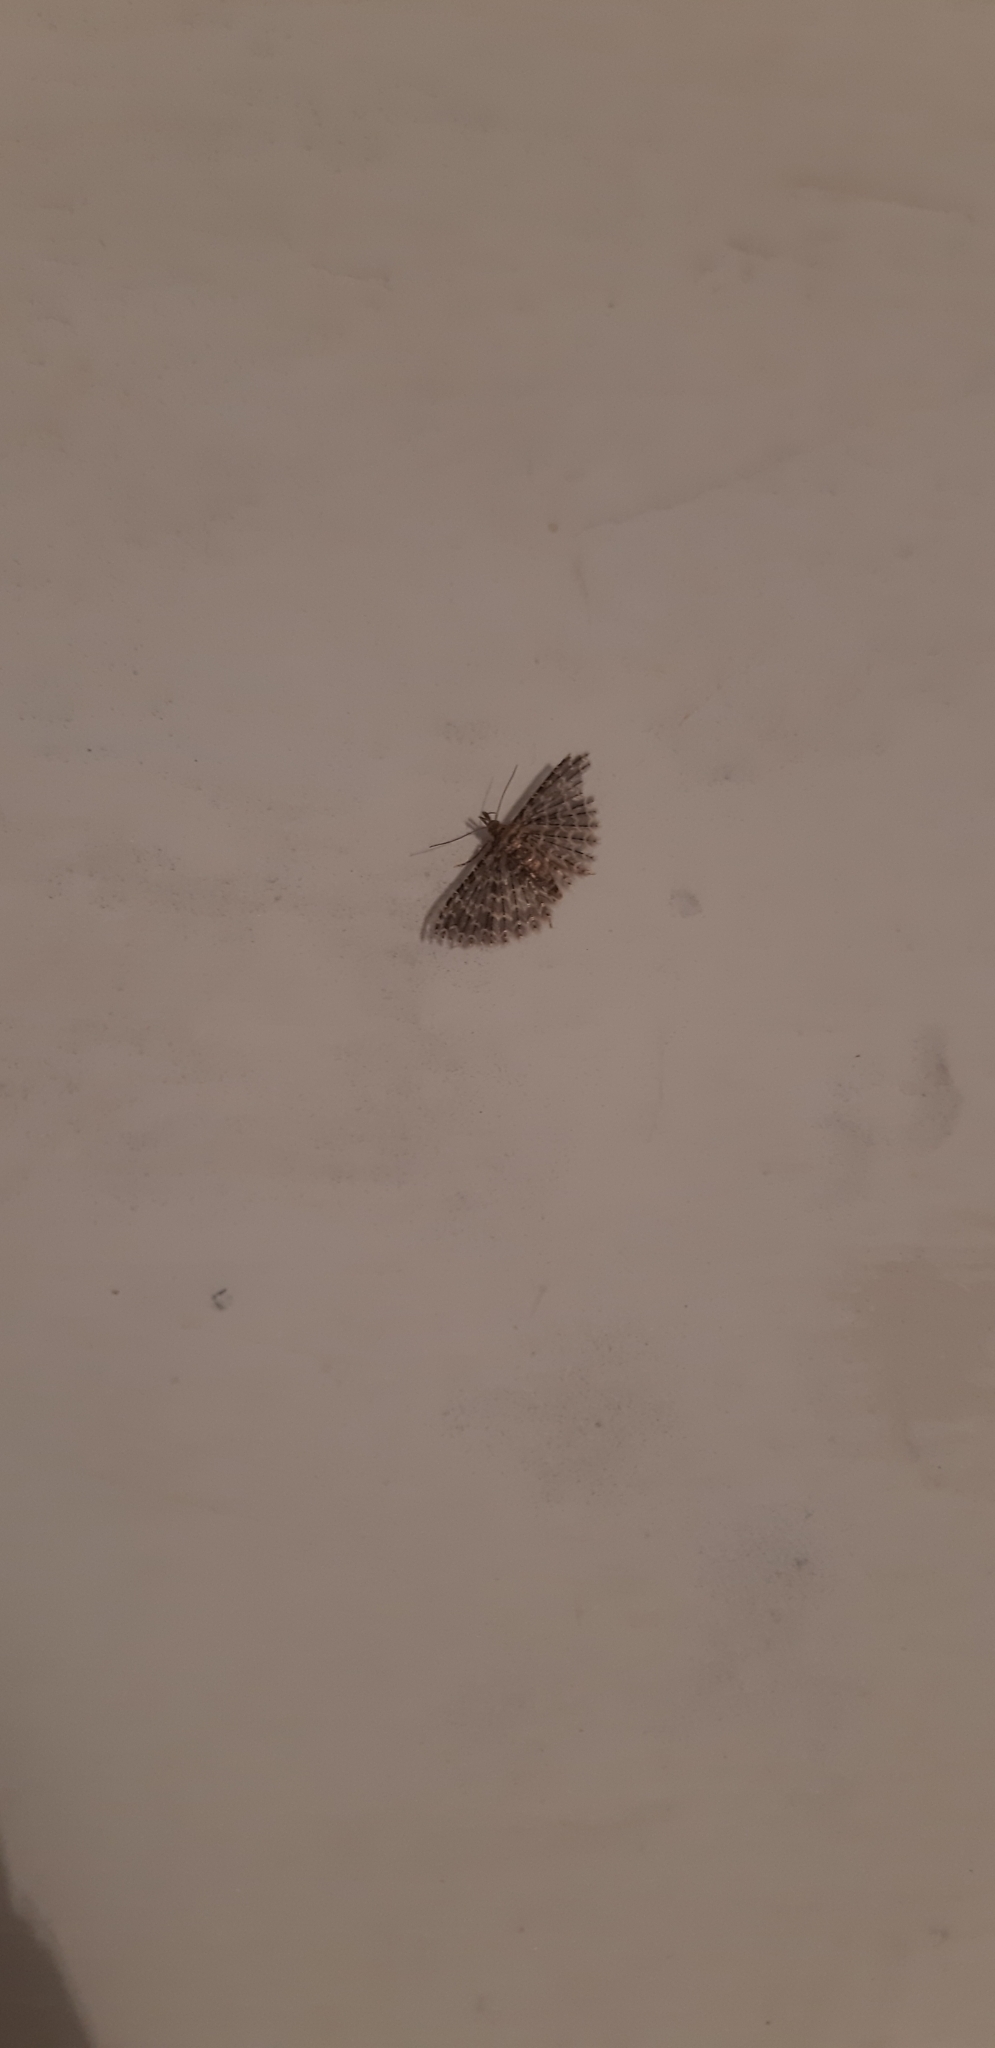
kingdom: Animalia
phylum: Arthropoda
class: Insecta
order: Lepidoptera
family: Alucitidae
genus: Alucita
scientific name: Alucita hexadactyla
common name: Twenty-plume moth
